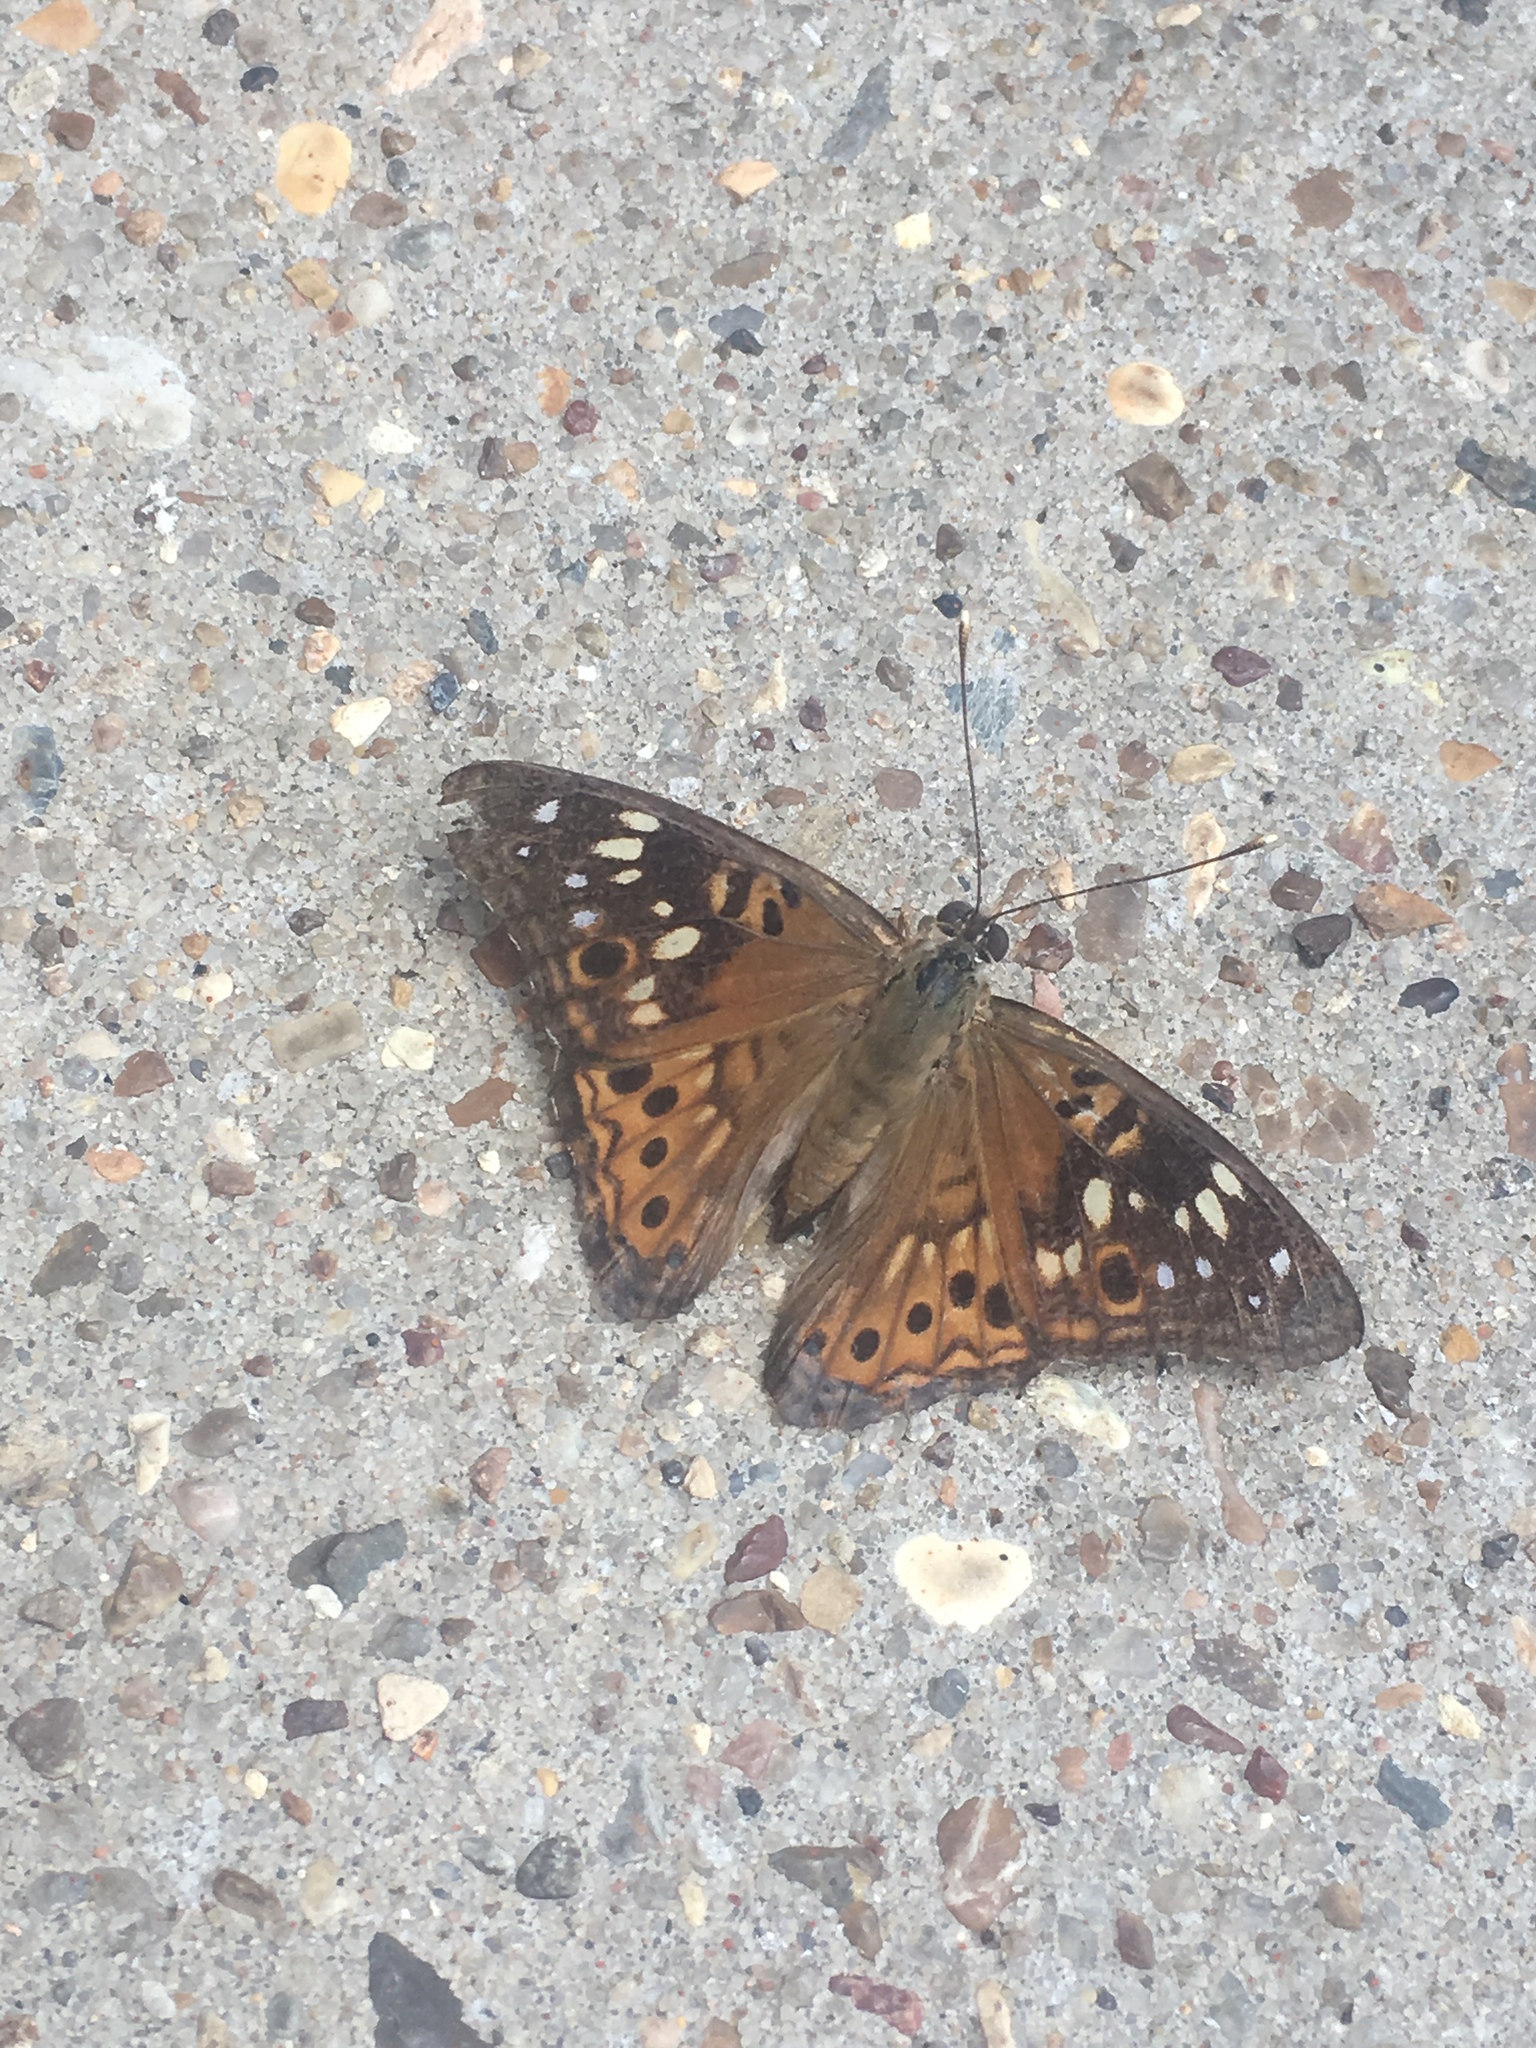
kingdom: Animalia
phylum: Arthropoda
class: Insecta
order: Lepidoptera
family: Nymphalidae
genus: Asterocampa
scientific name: Asterocampa celtis
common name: Hackberry emperor
